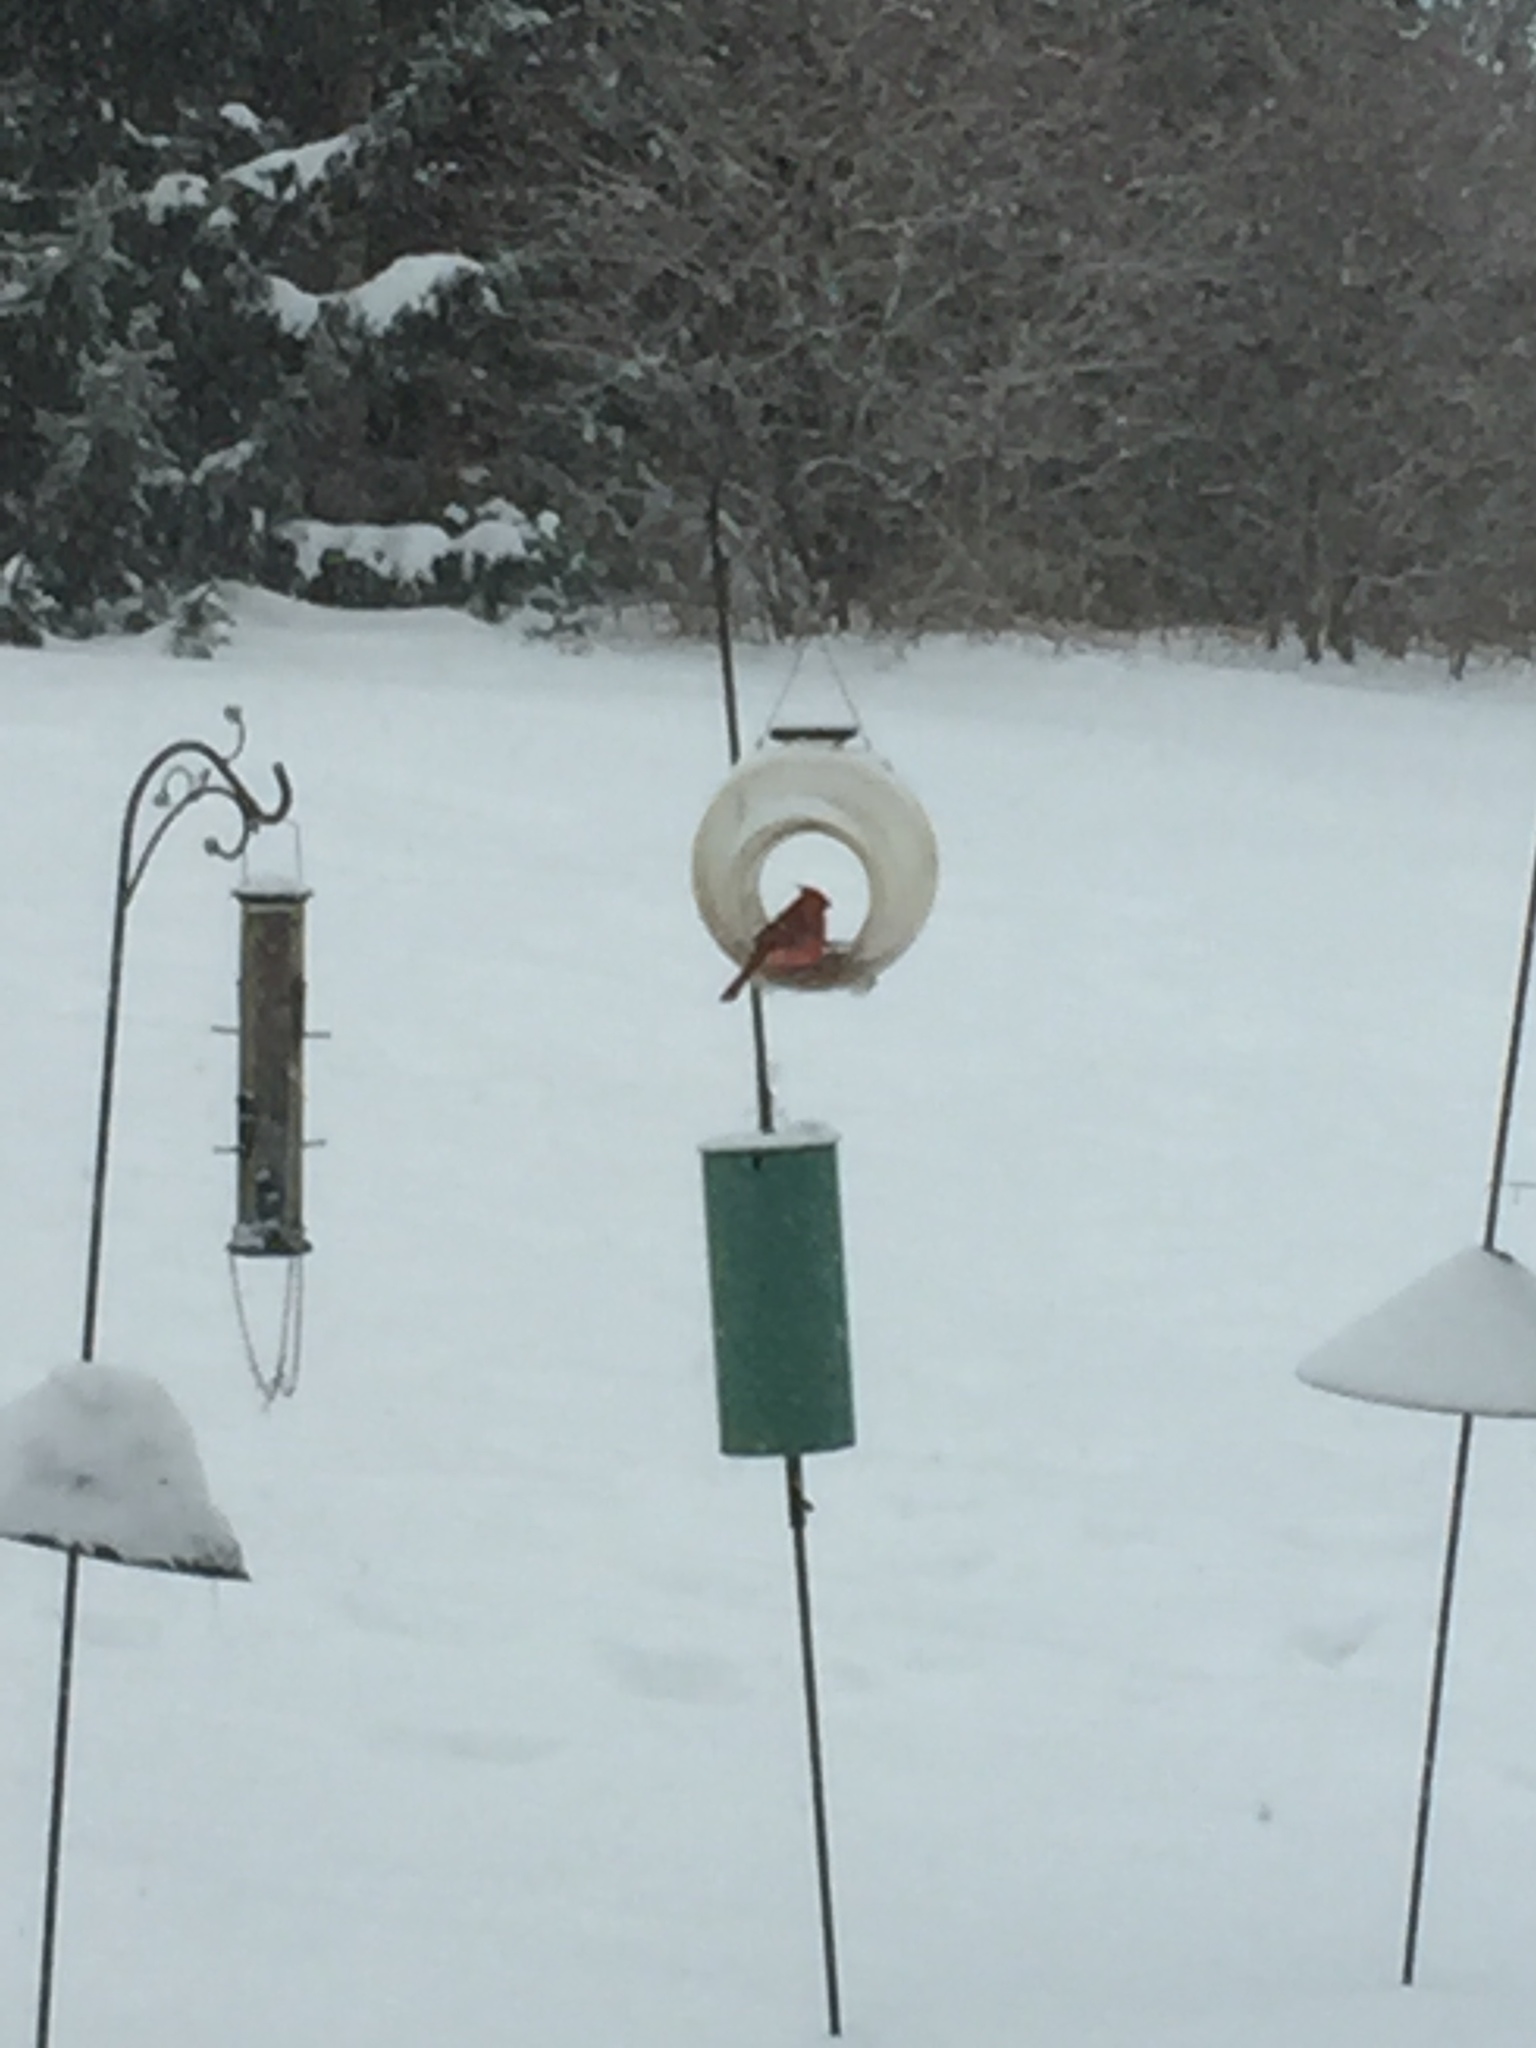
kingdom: Animalia
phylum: Chordata
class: Aves
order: Passeriformes
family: Cardinalidae
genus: Cardinalis
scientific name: Cardinalis cardinalis
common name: Northern cardinal
